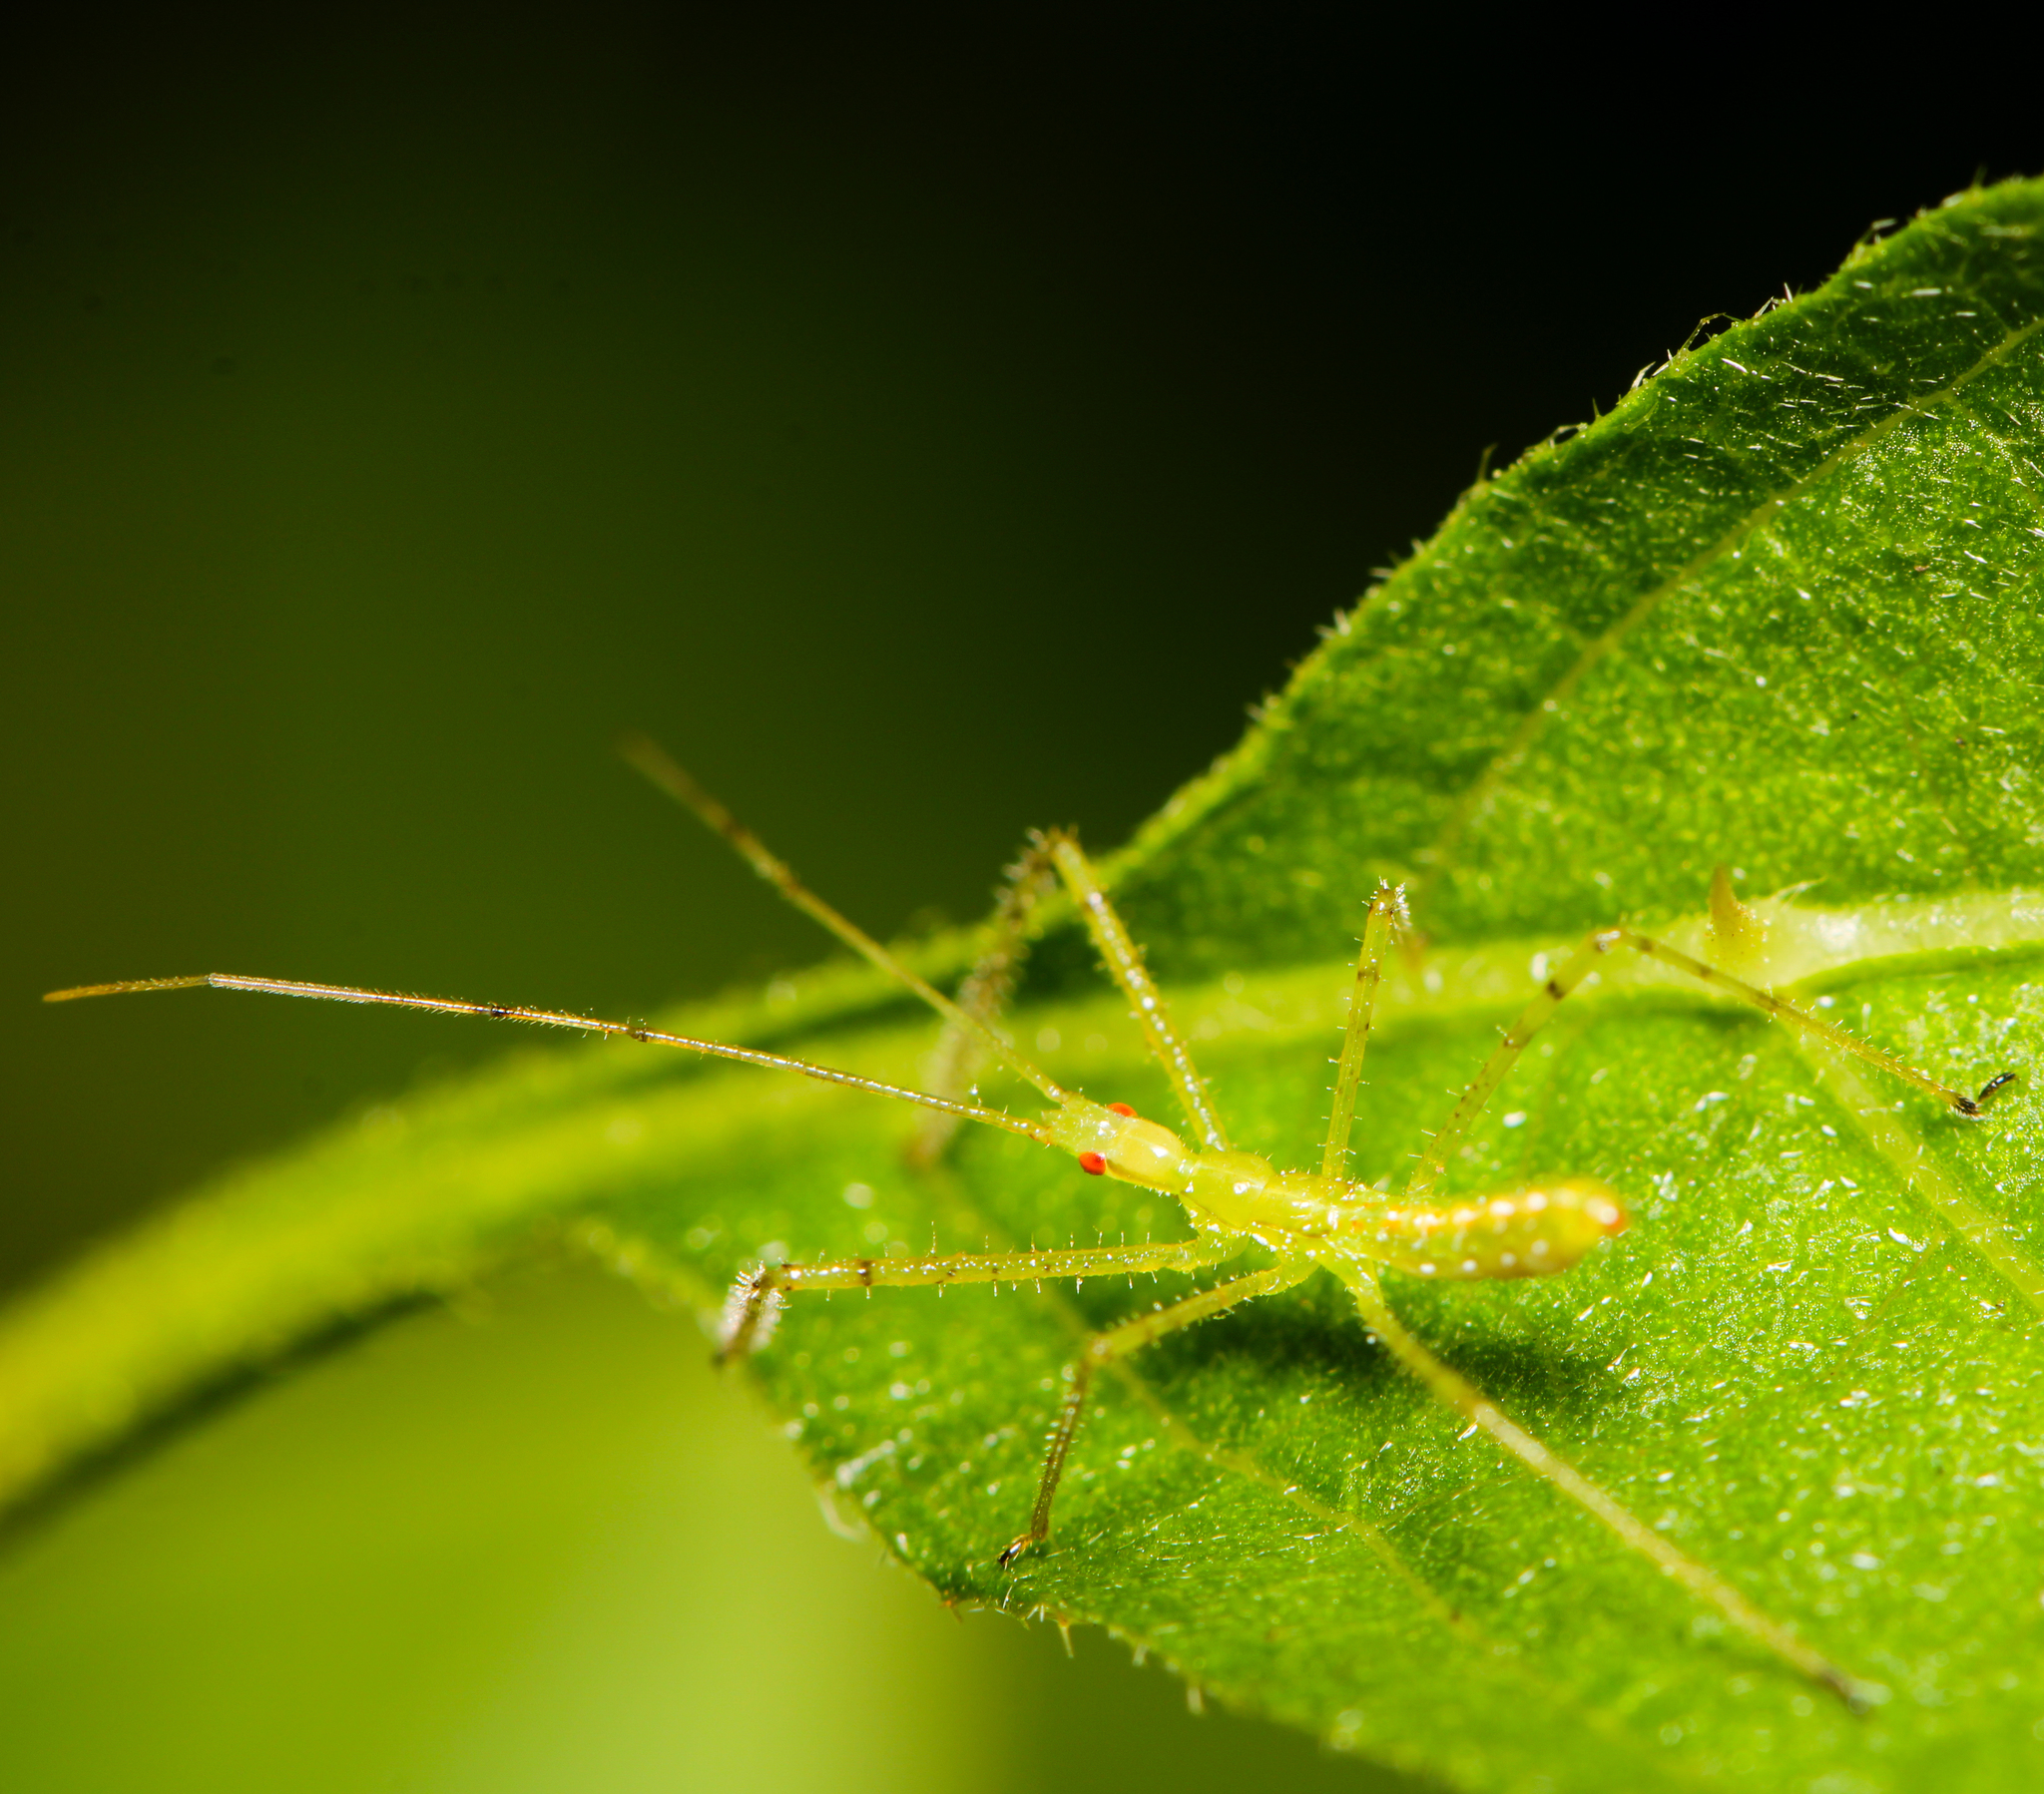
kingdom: Animalia
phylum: Arthropoda
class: Insecta
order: Hemiptera
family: Reduviidae
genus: Zelus
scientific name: Zelus luridus
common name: Pale green assassin bug
